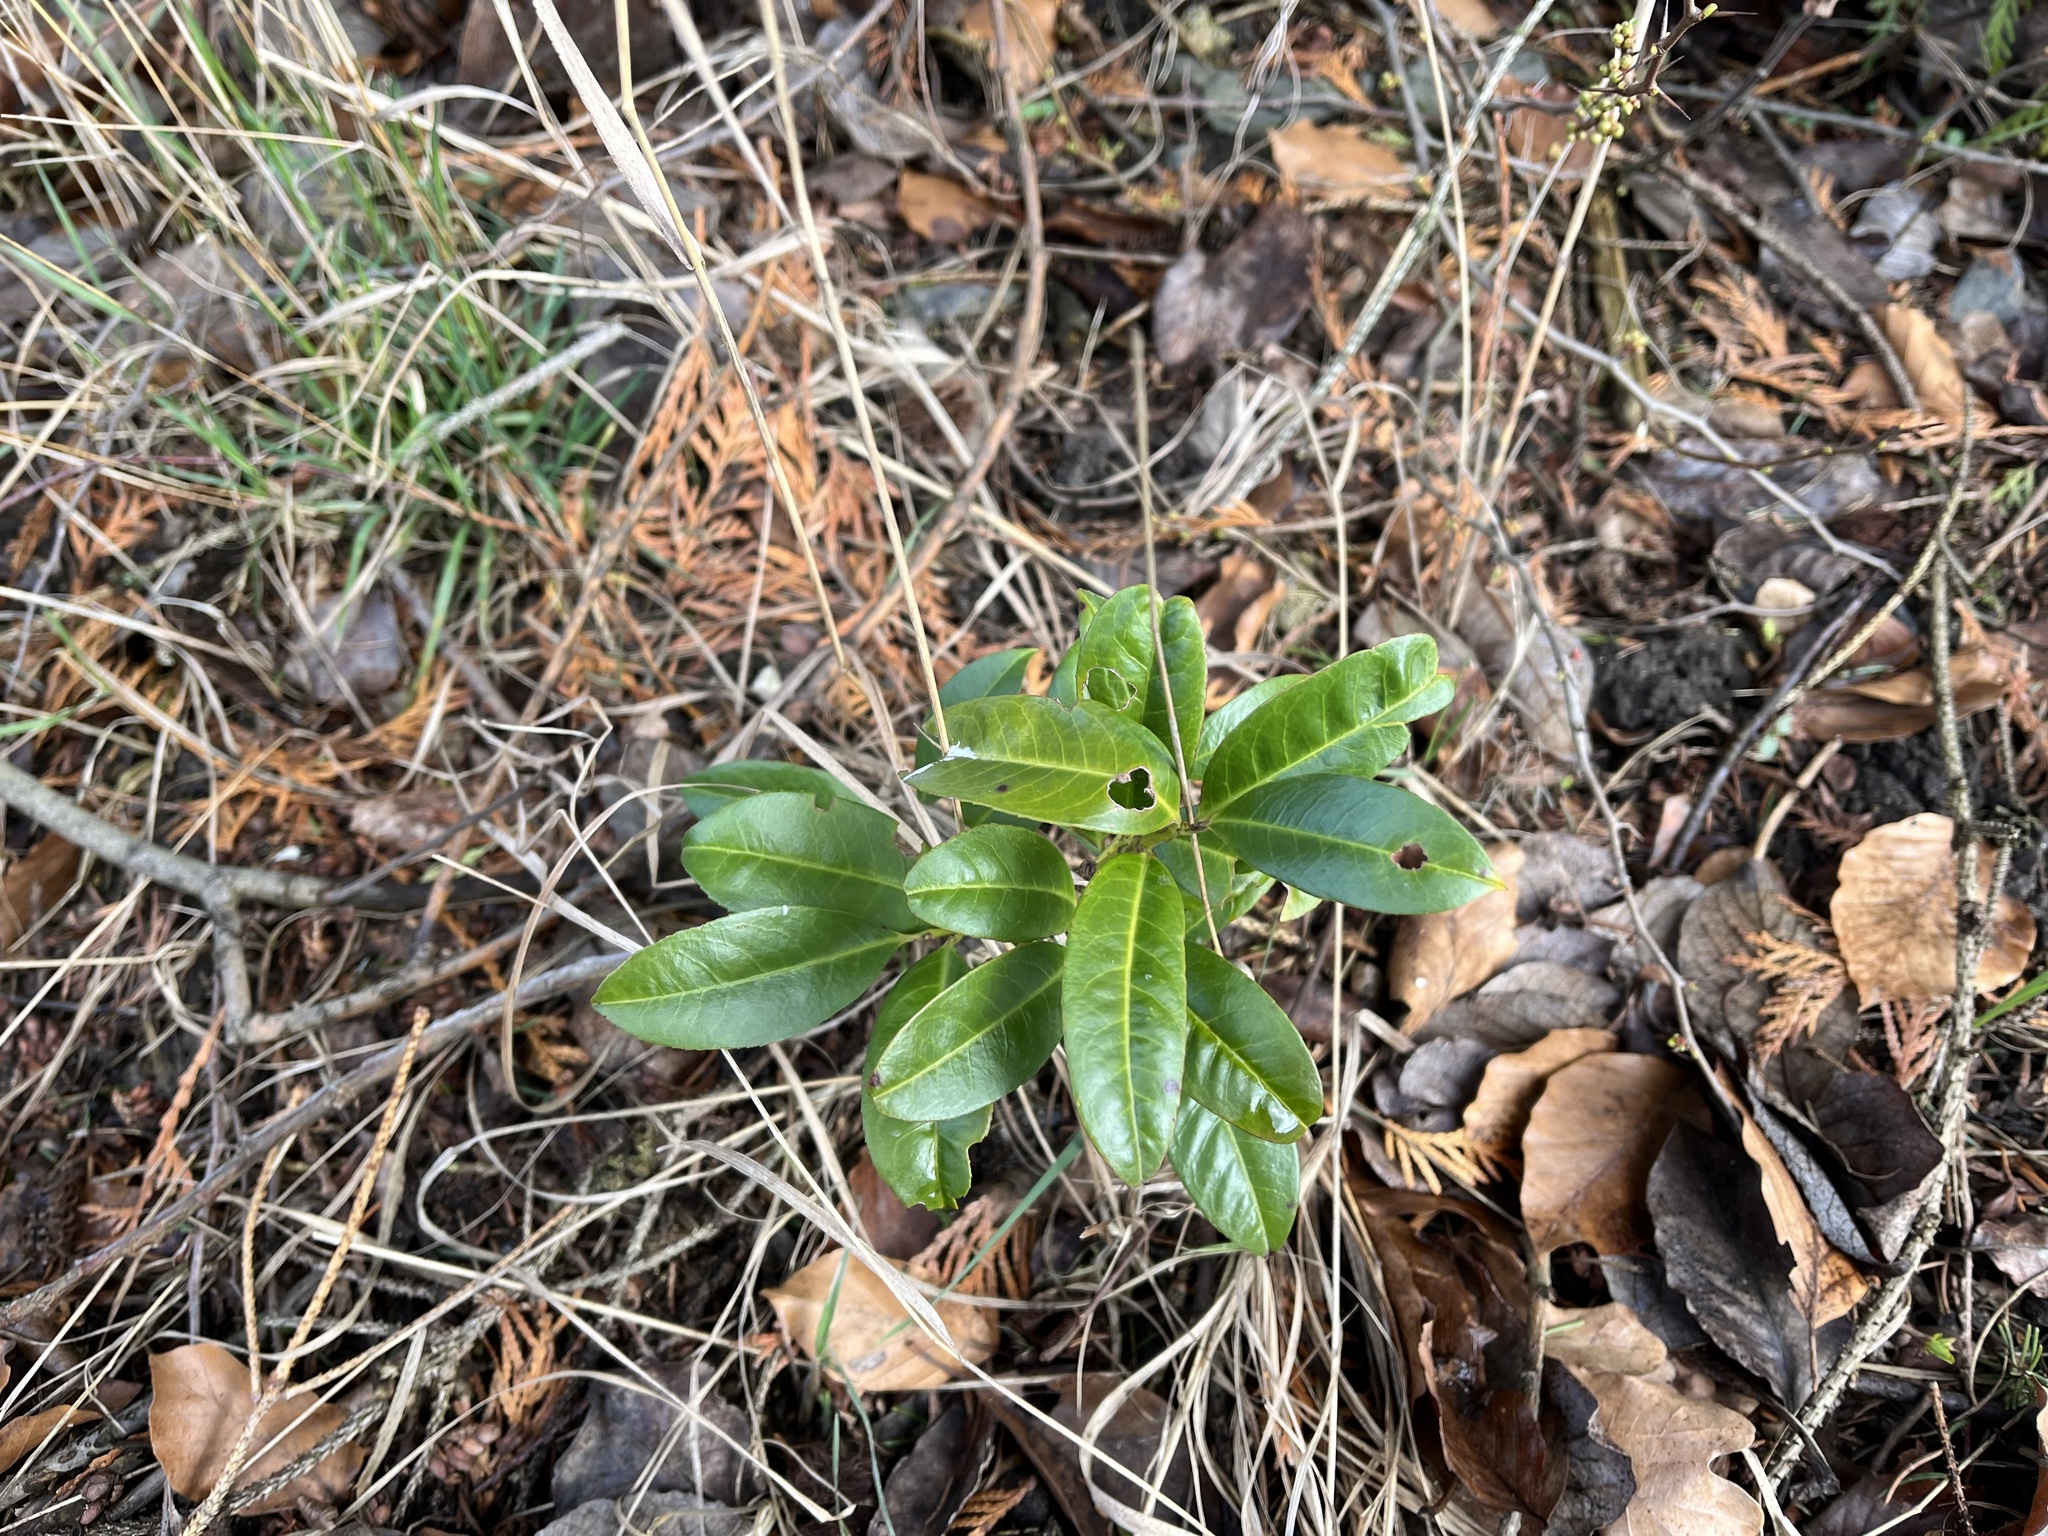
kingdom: Plantae
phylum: Tracheophyta
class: Magnoliopsida
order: Rosales
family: Rosaceae
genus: Prunus
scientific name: Prunus laurocerasus
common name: Cherry laurel
